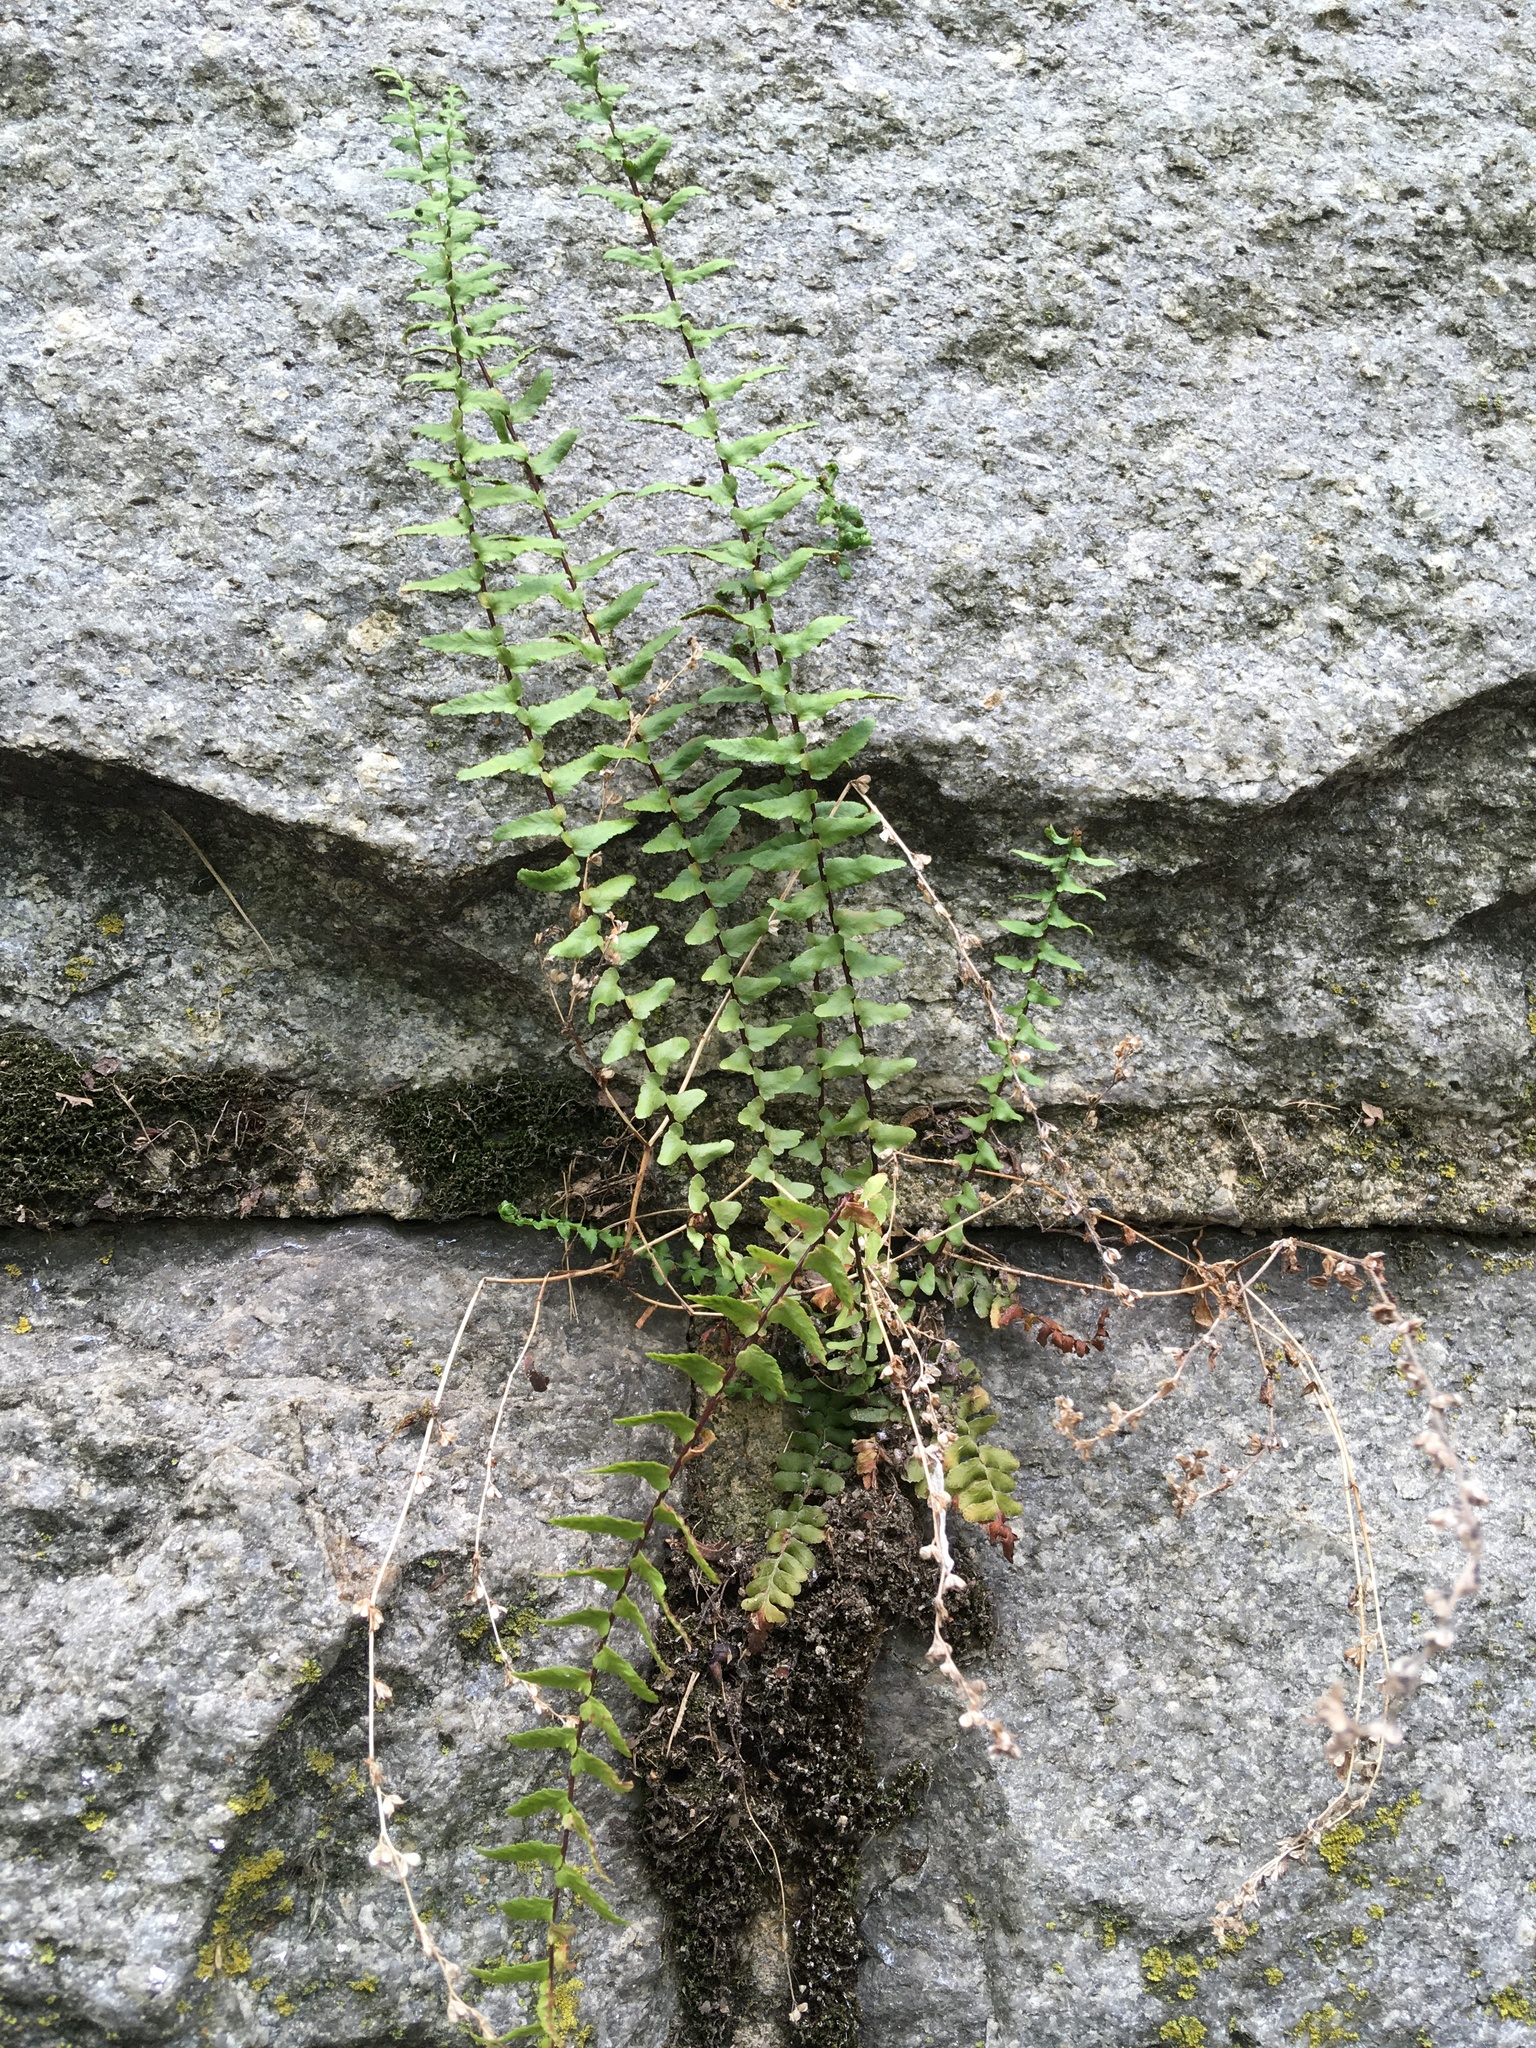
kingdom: Plantae
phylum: Tracheophyta
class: Polypodiopsida
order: Polypodiales
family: Aspleniaceae
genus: Asplenium
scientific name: Asplenium platyneuron
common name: Ebony spleenwort
